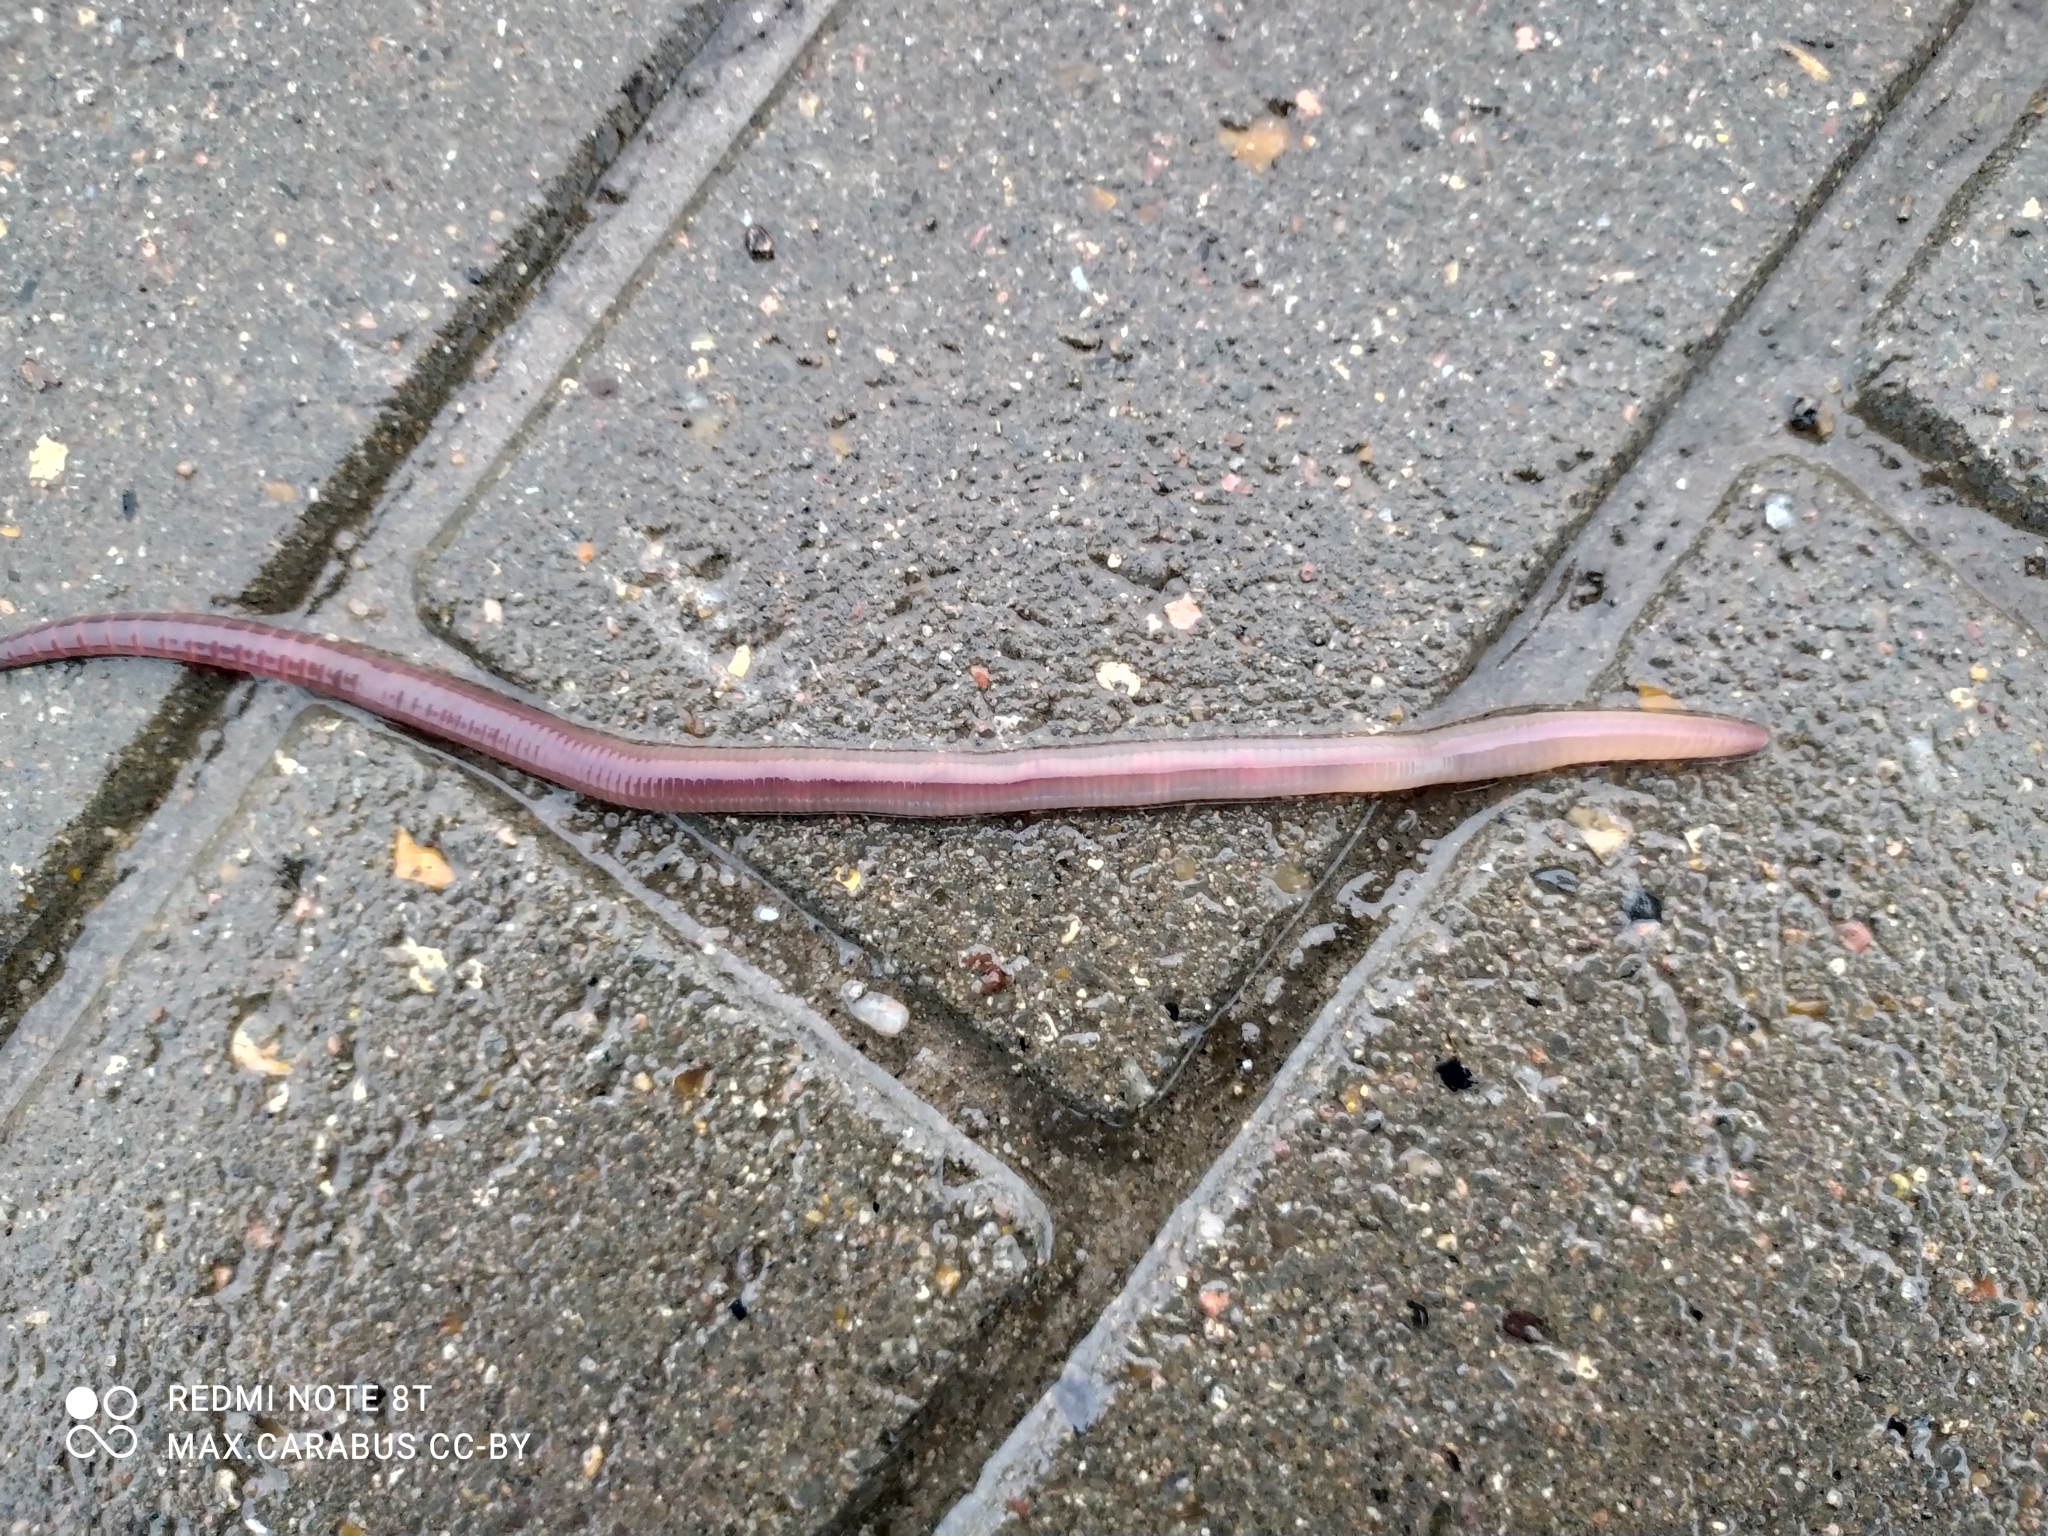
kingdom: Animalia
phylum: Annelida
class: Clitellata
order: Crassiclitellata
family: Lumbricidae
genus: Lumbricus
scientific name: Lumbricus terrestris
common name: Common earthworm
